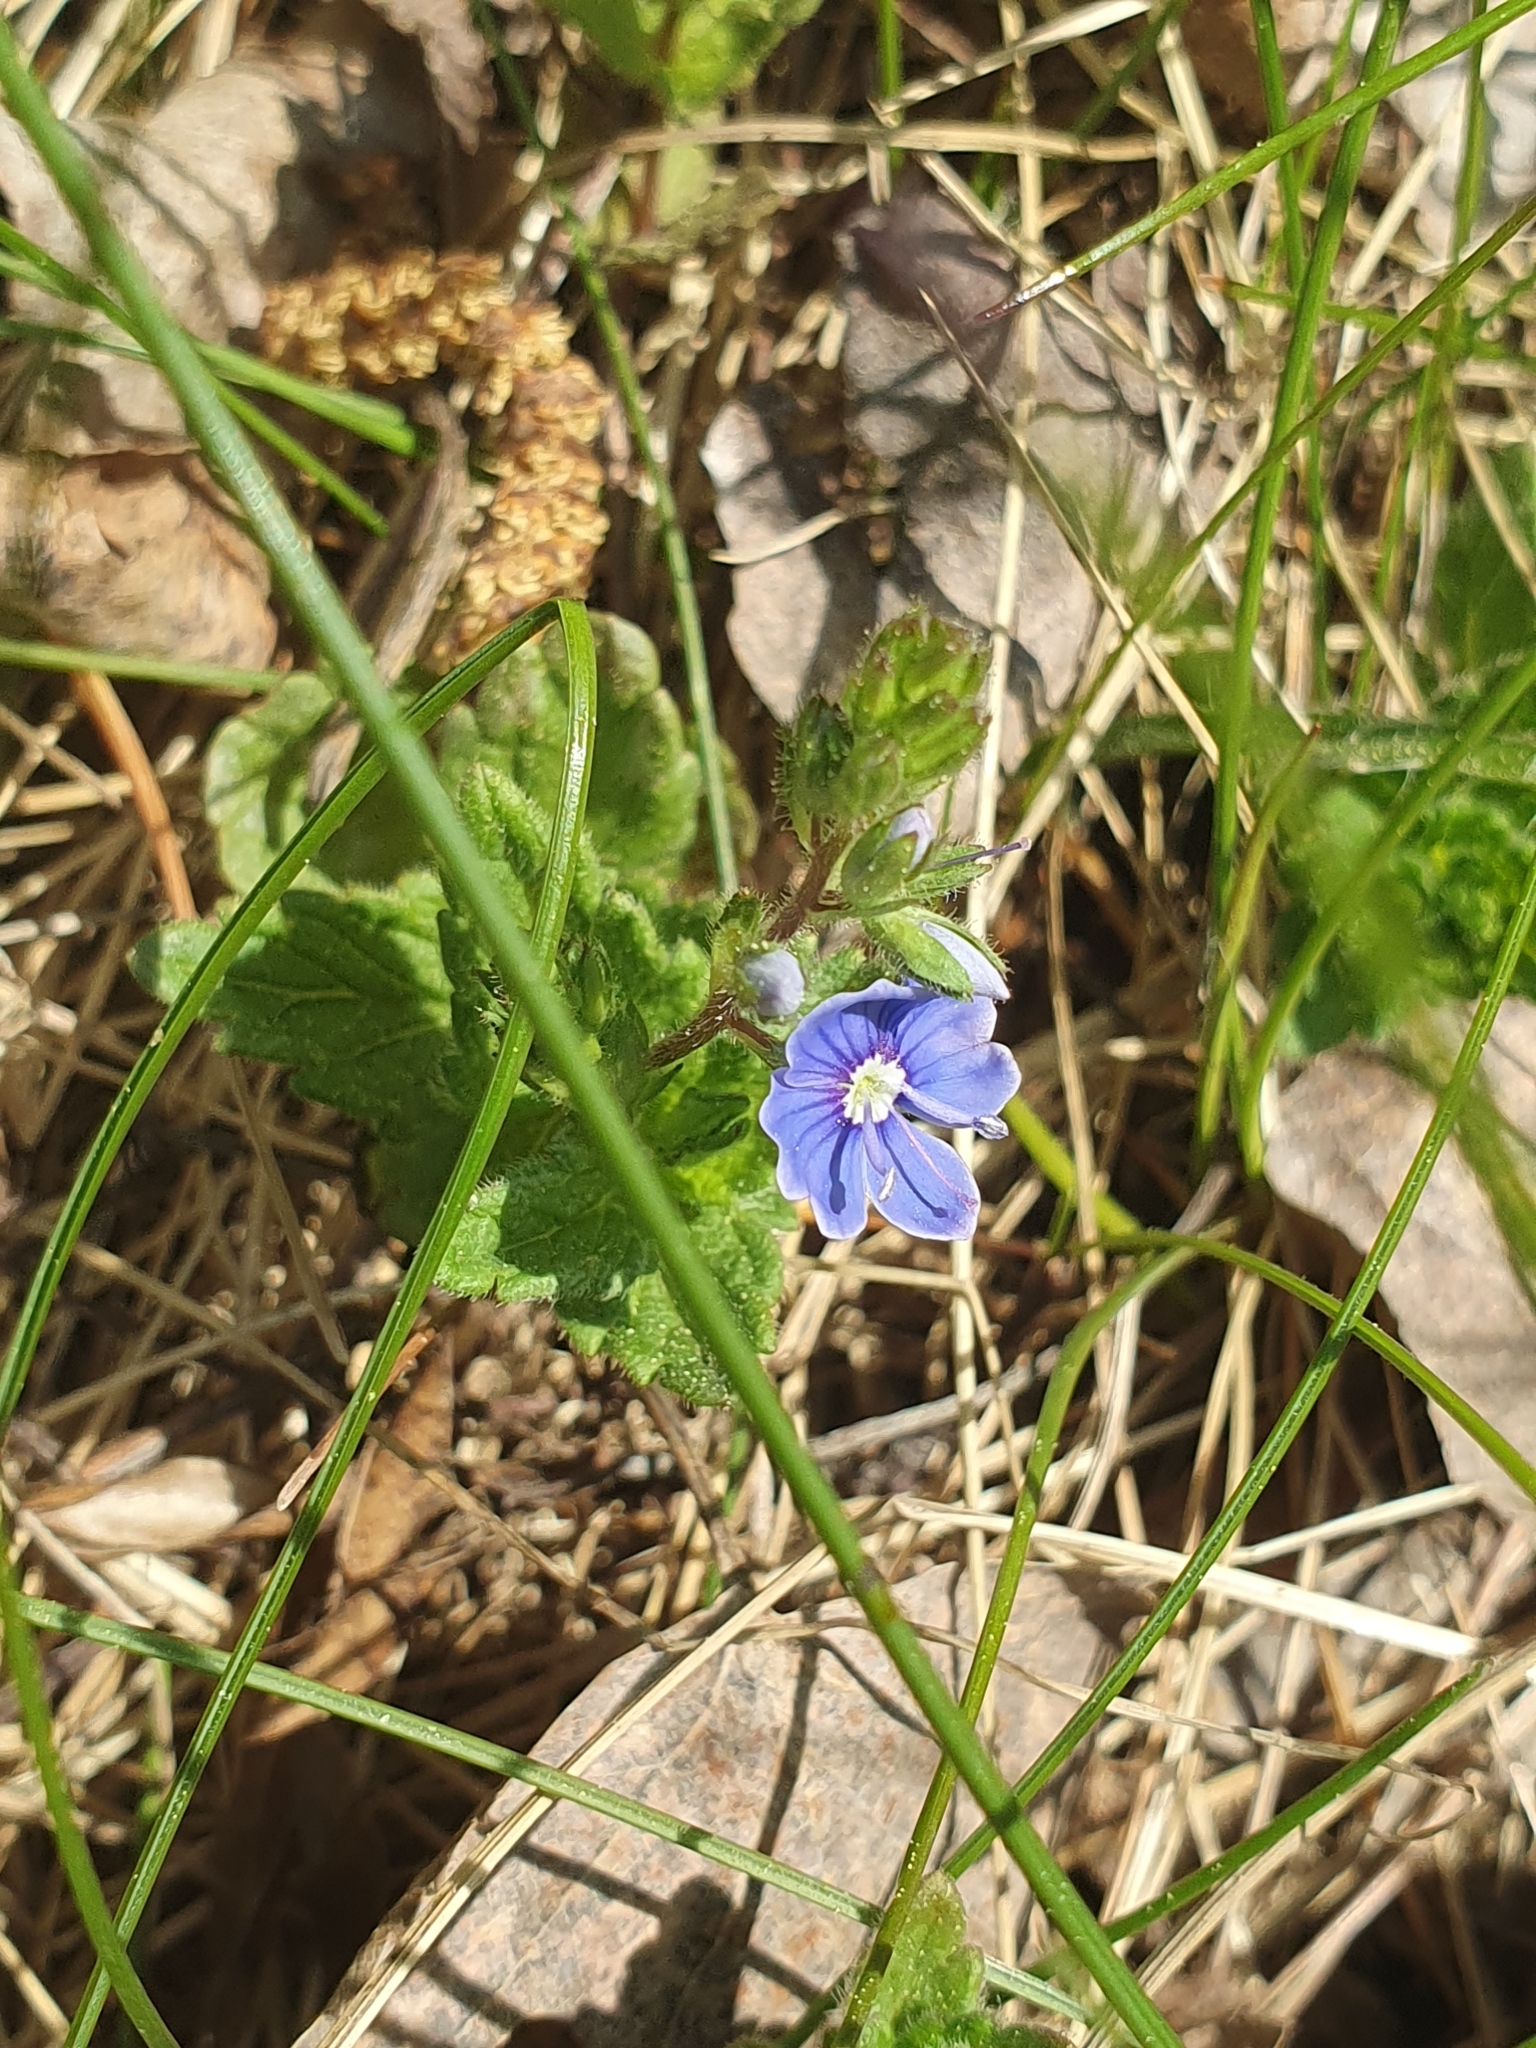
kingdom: Plantae
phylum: Tracheophyta
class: Magnoliopsida
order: Lamiales
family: Plantaginaceae
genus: Veronica
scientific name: Veronica chamaedrys
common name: Germander speedwell
